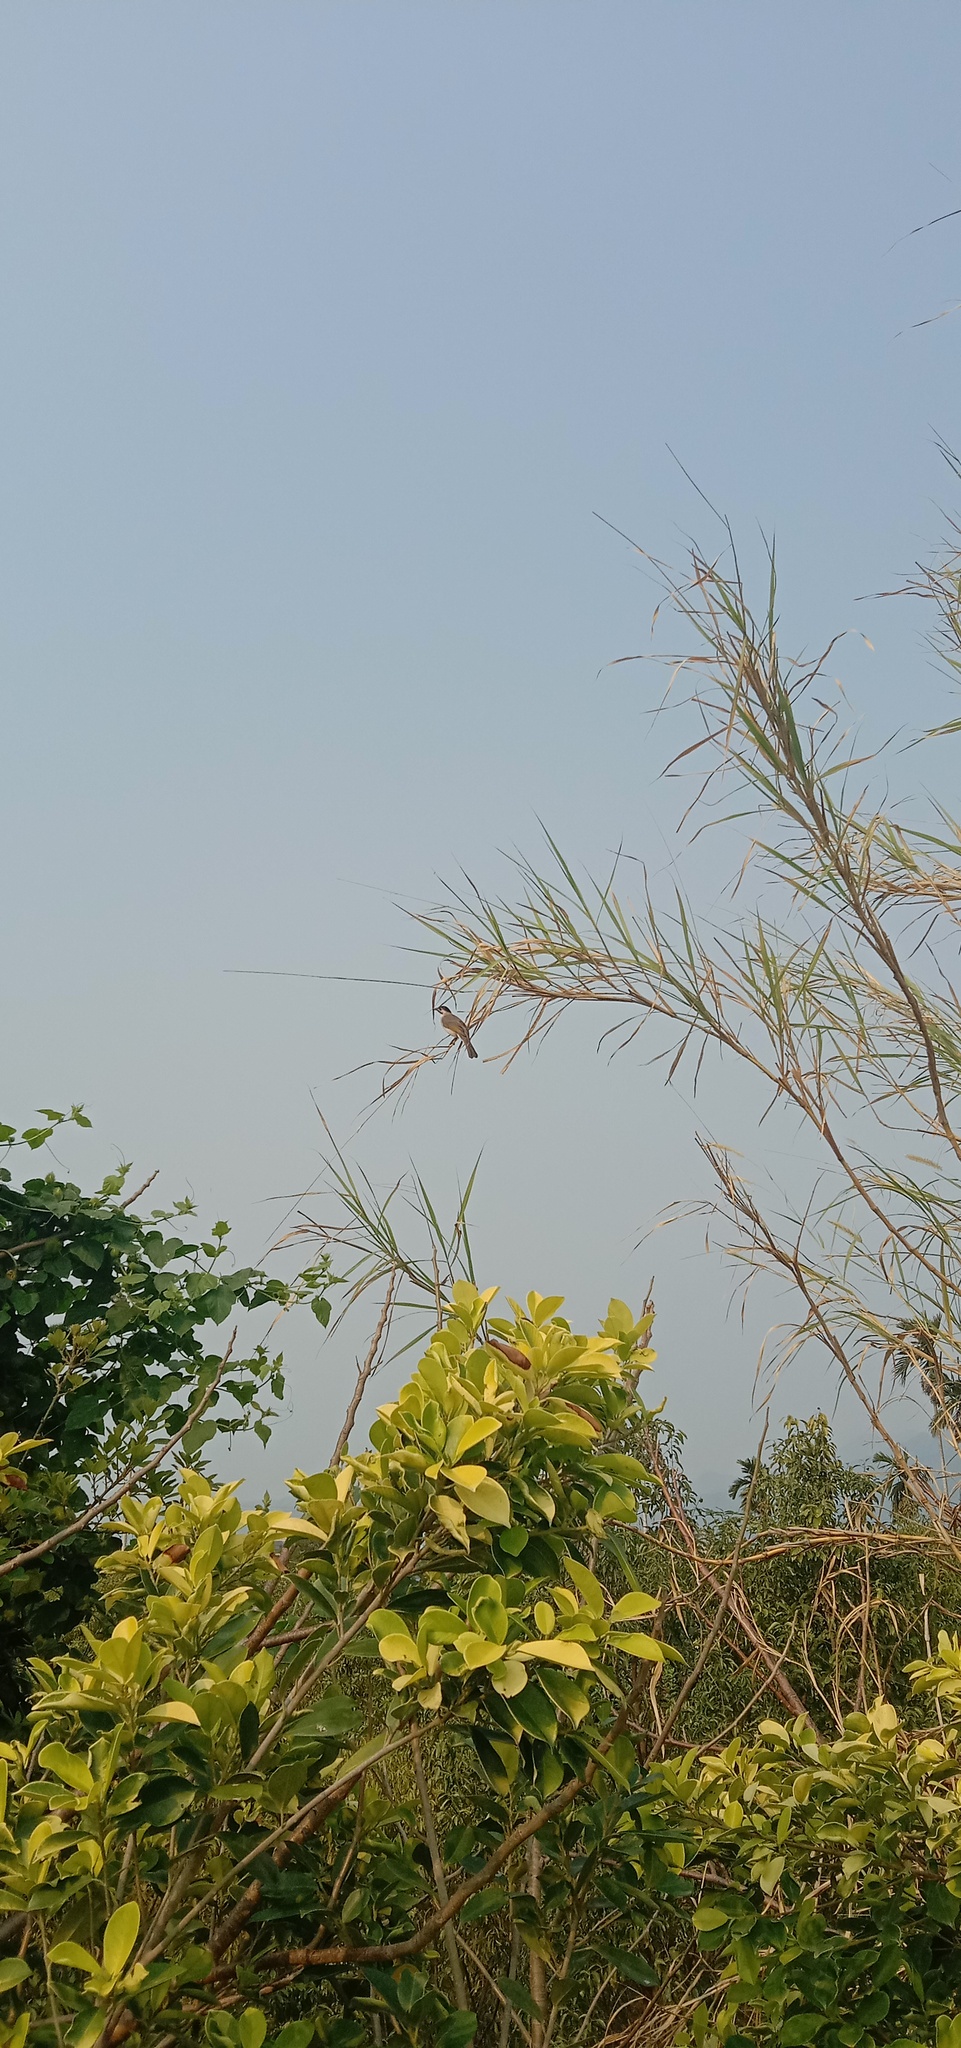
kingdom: Animalia
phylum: Chordata
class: Aves
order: Passeriformes
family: Pycnonotidae
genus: Pycnonotus
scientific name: Pycnonotus taivanus
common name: Styan's bulbul
